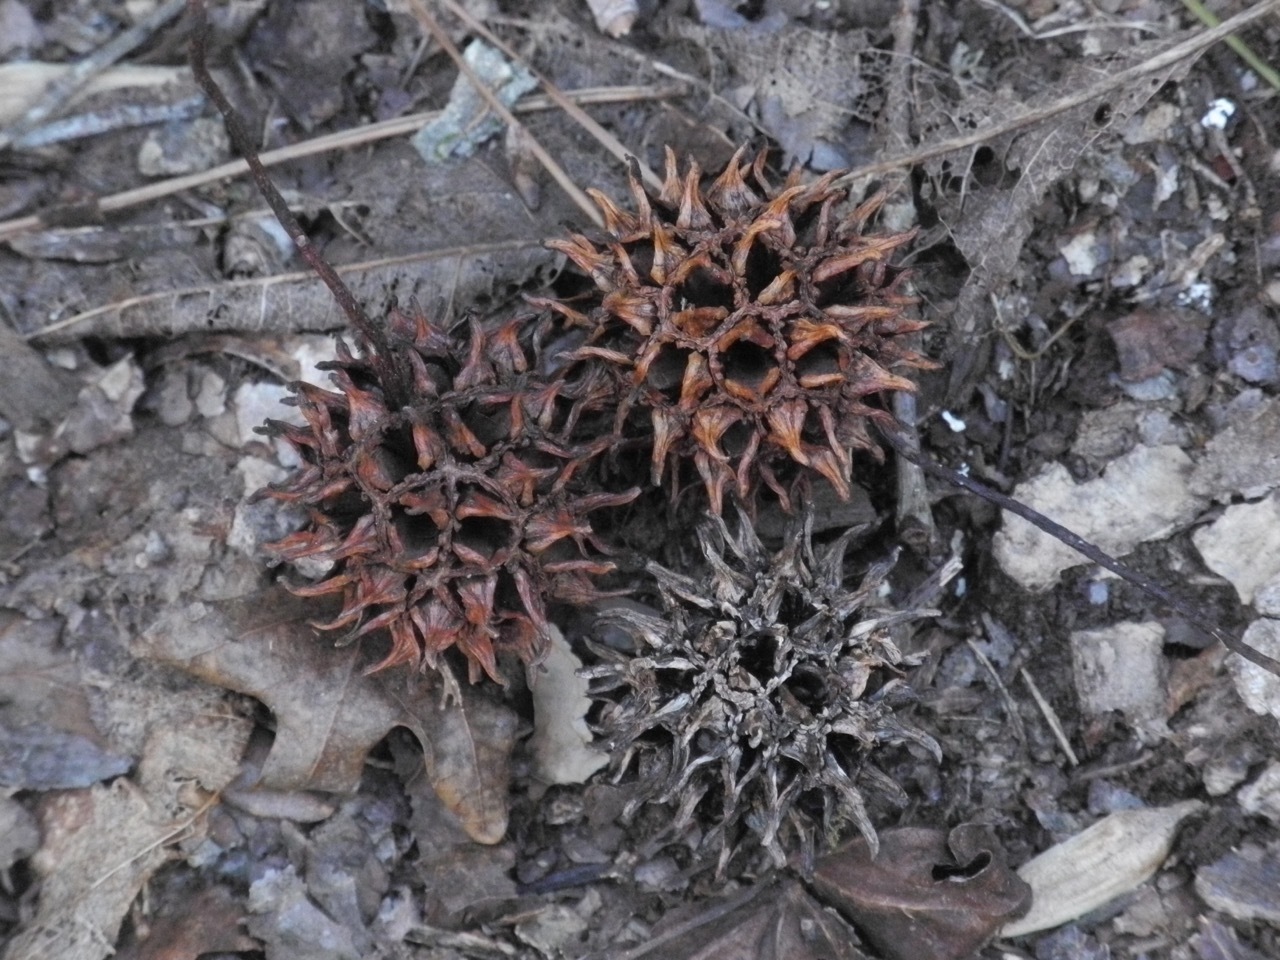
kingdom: Plantae
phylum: Tracheophyta
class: Magnoliopsida
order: Saxifragales
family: Altingiaceae
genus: Liquidambar
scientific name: Liquidambar styraciflua
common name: Sweet gum
